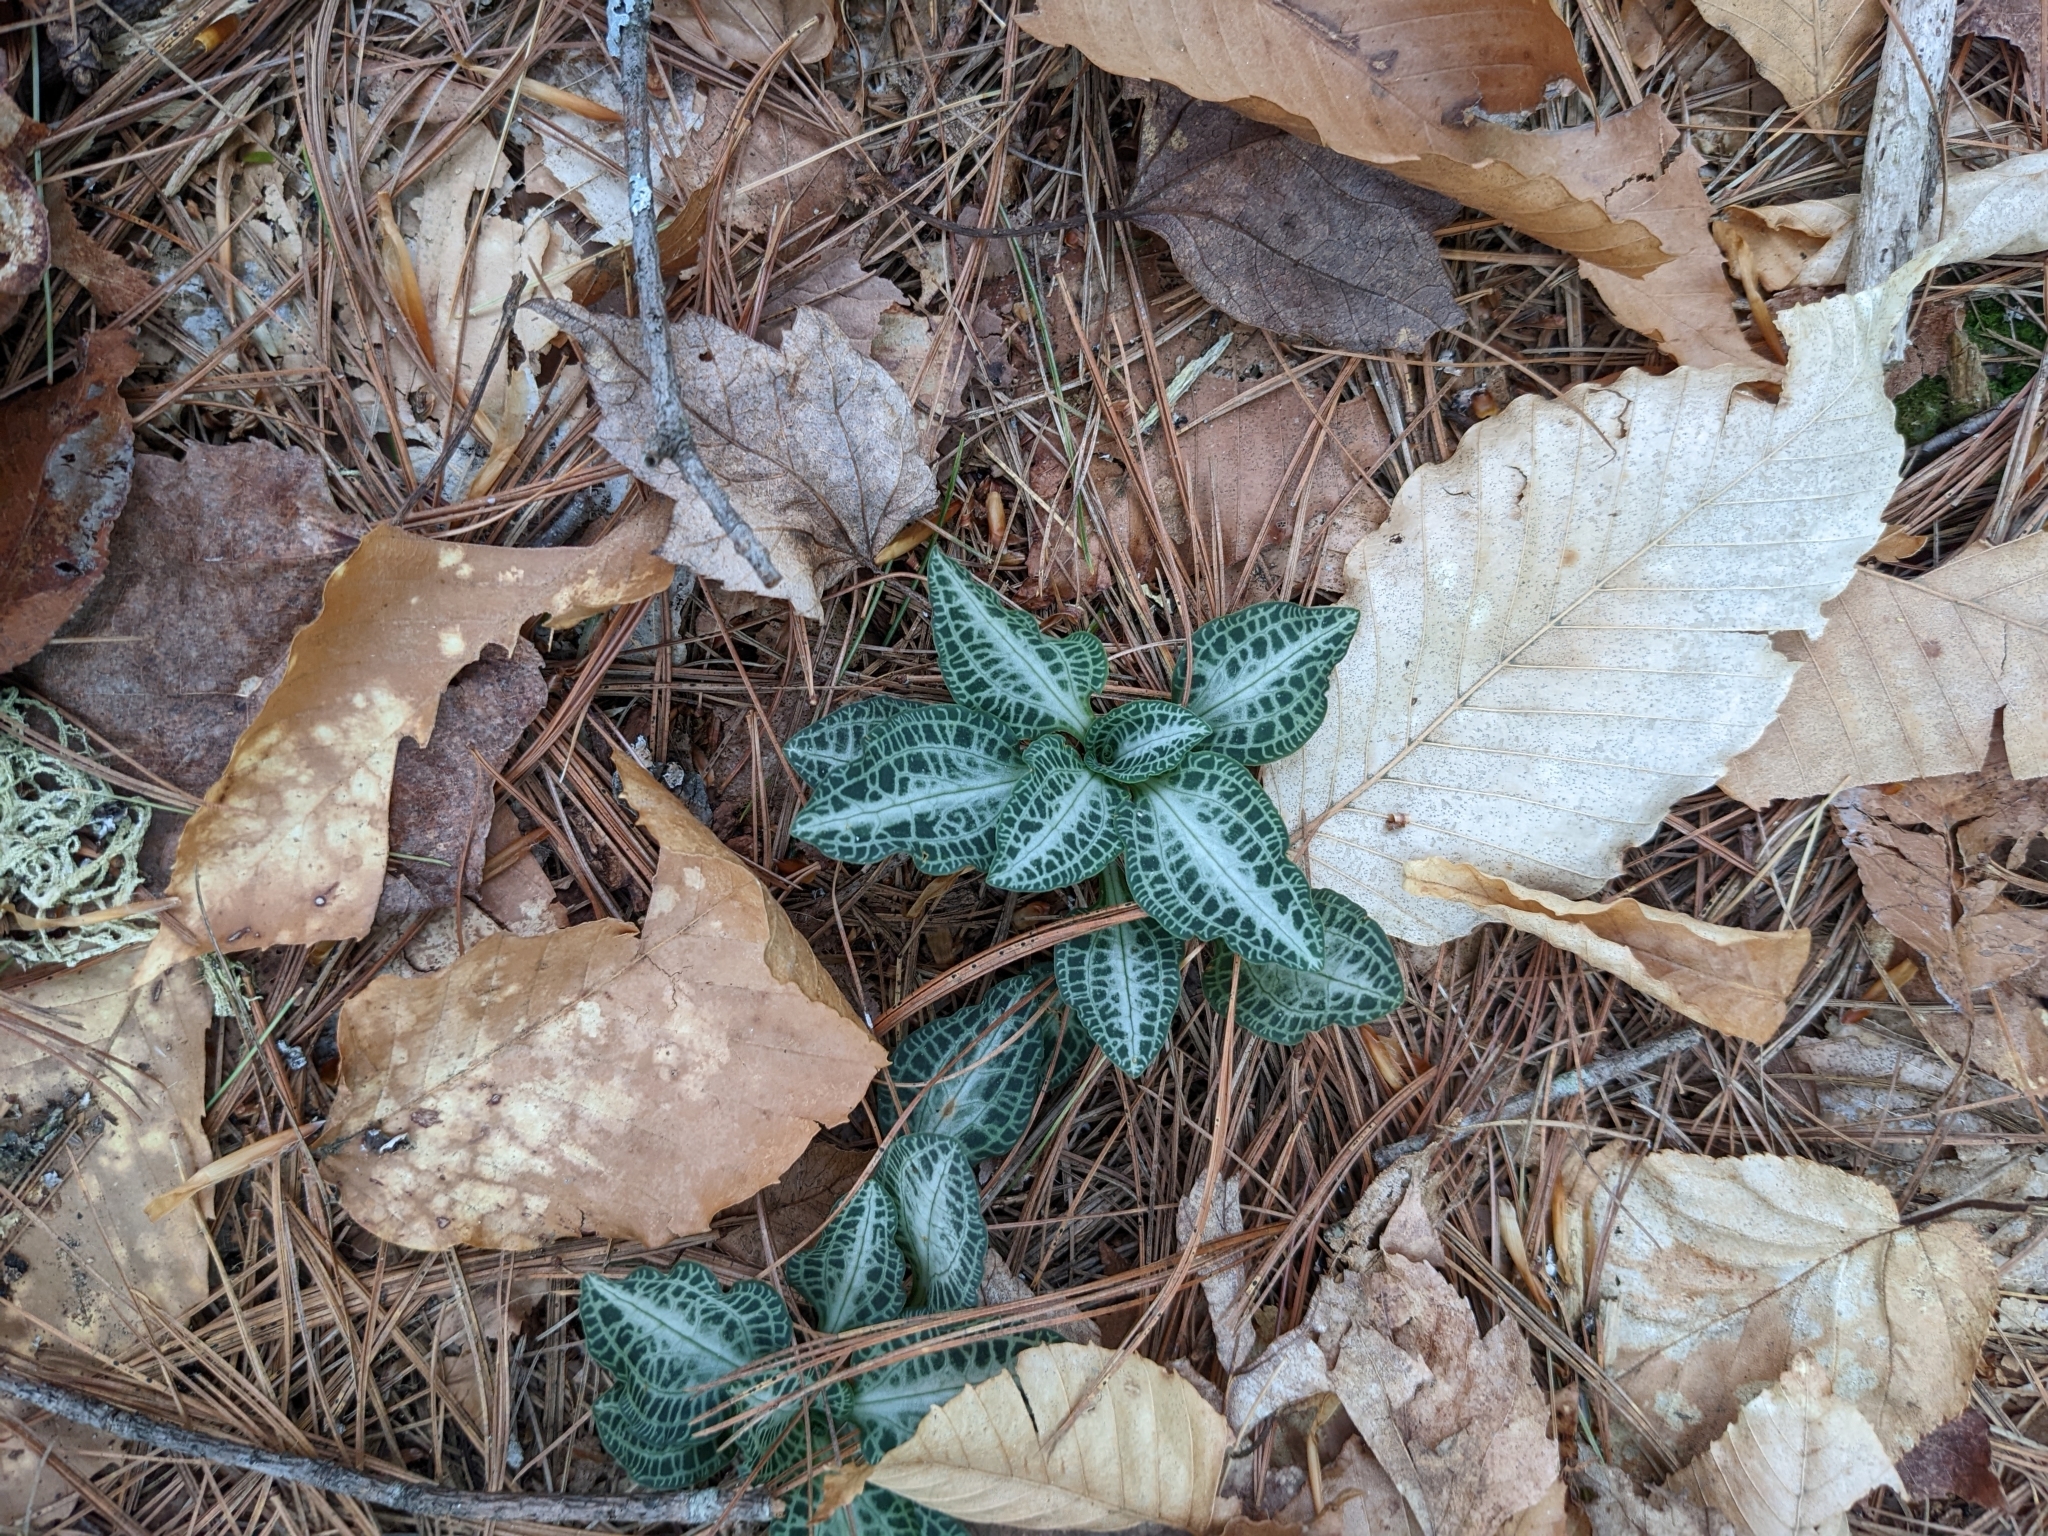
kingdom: Plantae
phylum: Tracheophyta
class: Liliopsida
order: Asparagales
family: Orchidaceae
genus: Goodyera
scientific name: Goodyera pubescens
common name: Downy rattlesnake-plantain
